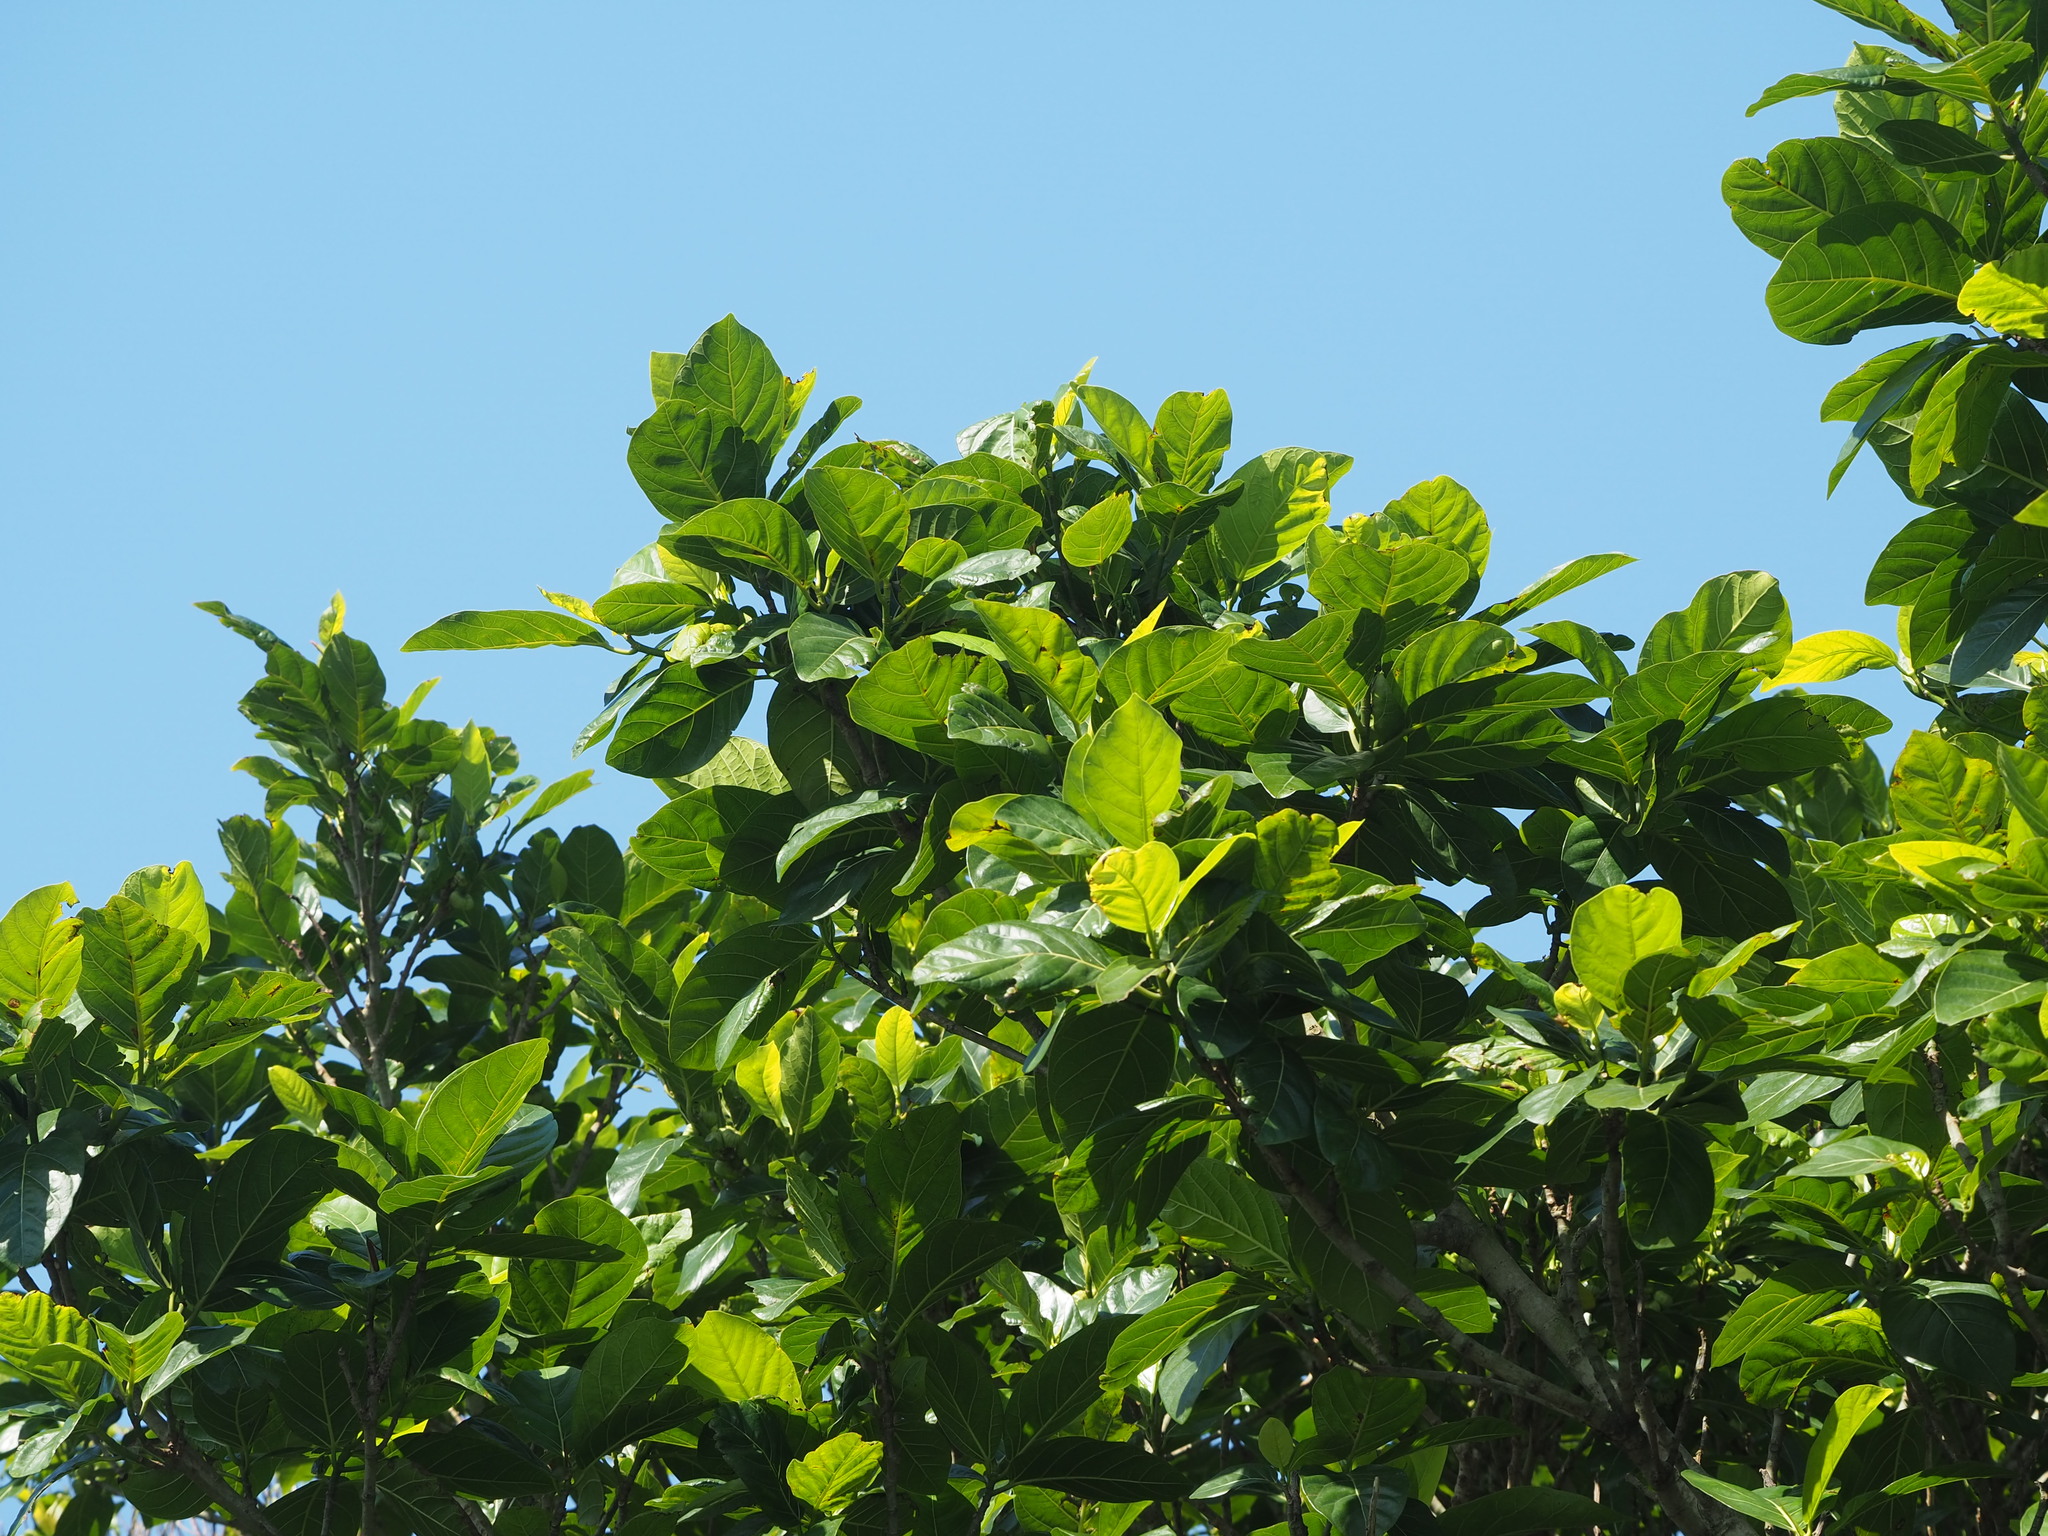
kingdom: Plantae
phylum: Tracheophyta
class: Magnoliopsida
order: Rosales
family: Moraceae
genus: Ficus
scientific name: Ficus septica
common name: Septic fig
